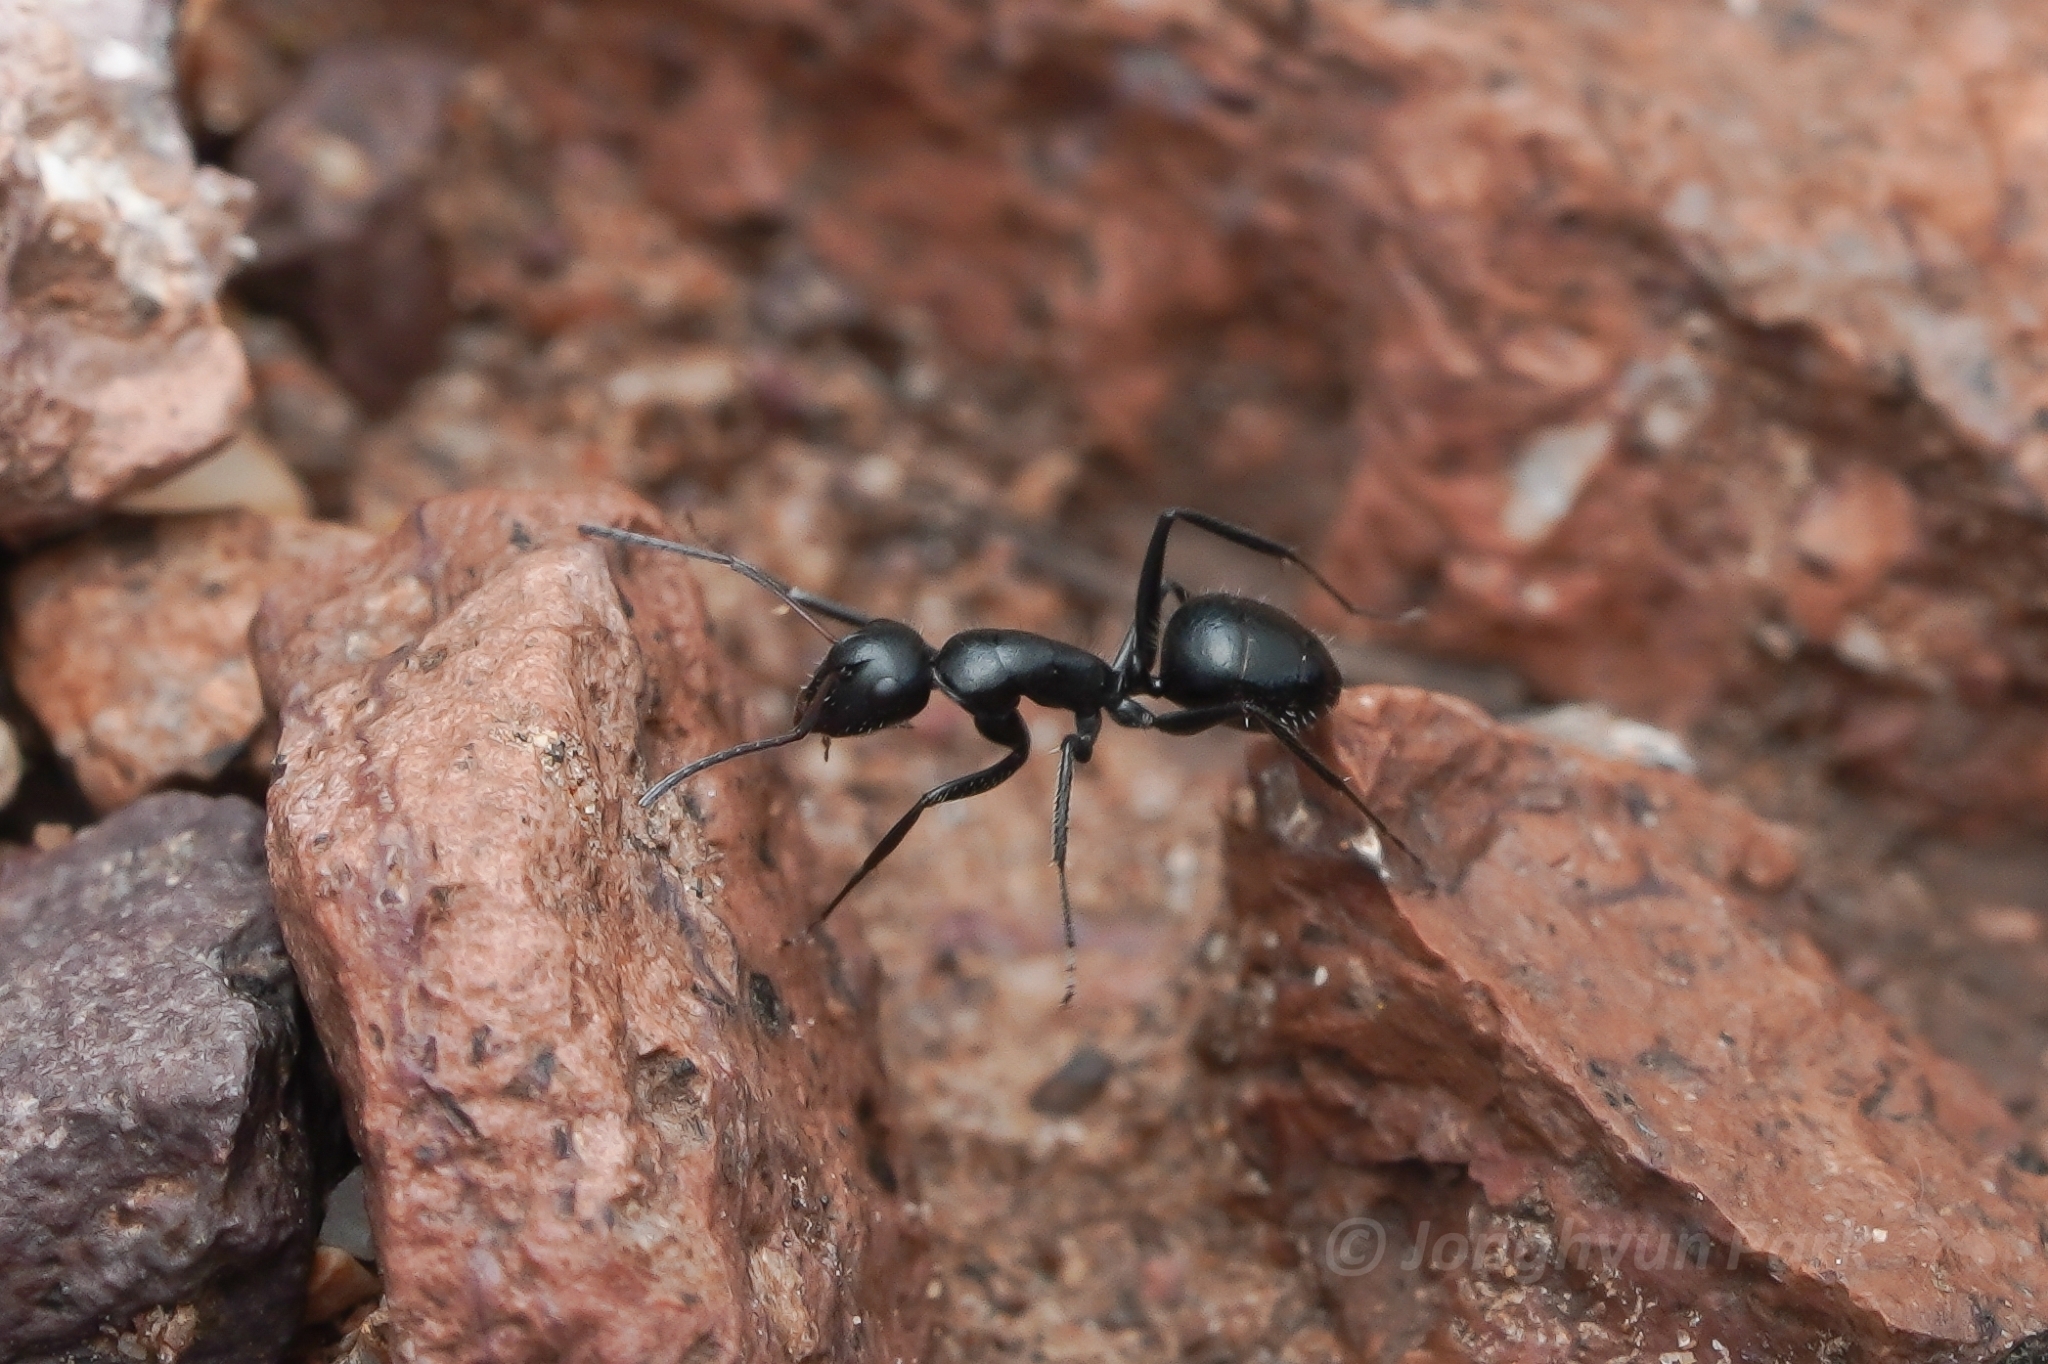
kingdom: Animalia
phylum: Arthropoda
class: Insecta
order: Hymenoptera
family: Formicidae
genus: Camponotus
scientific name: Camponotus ulcerosus
